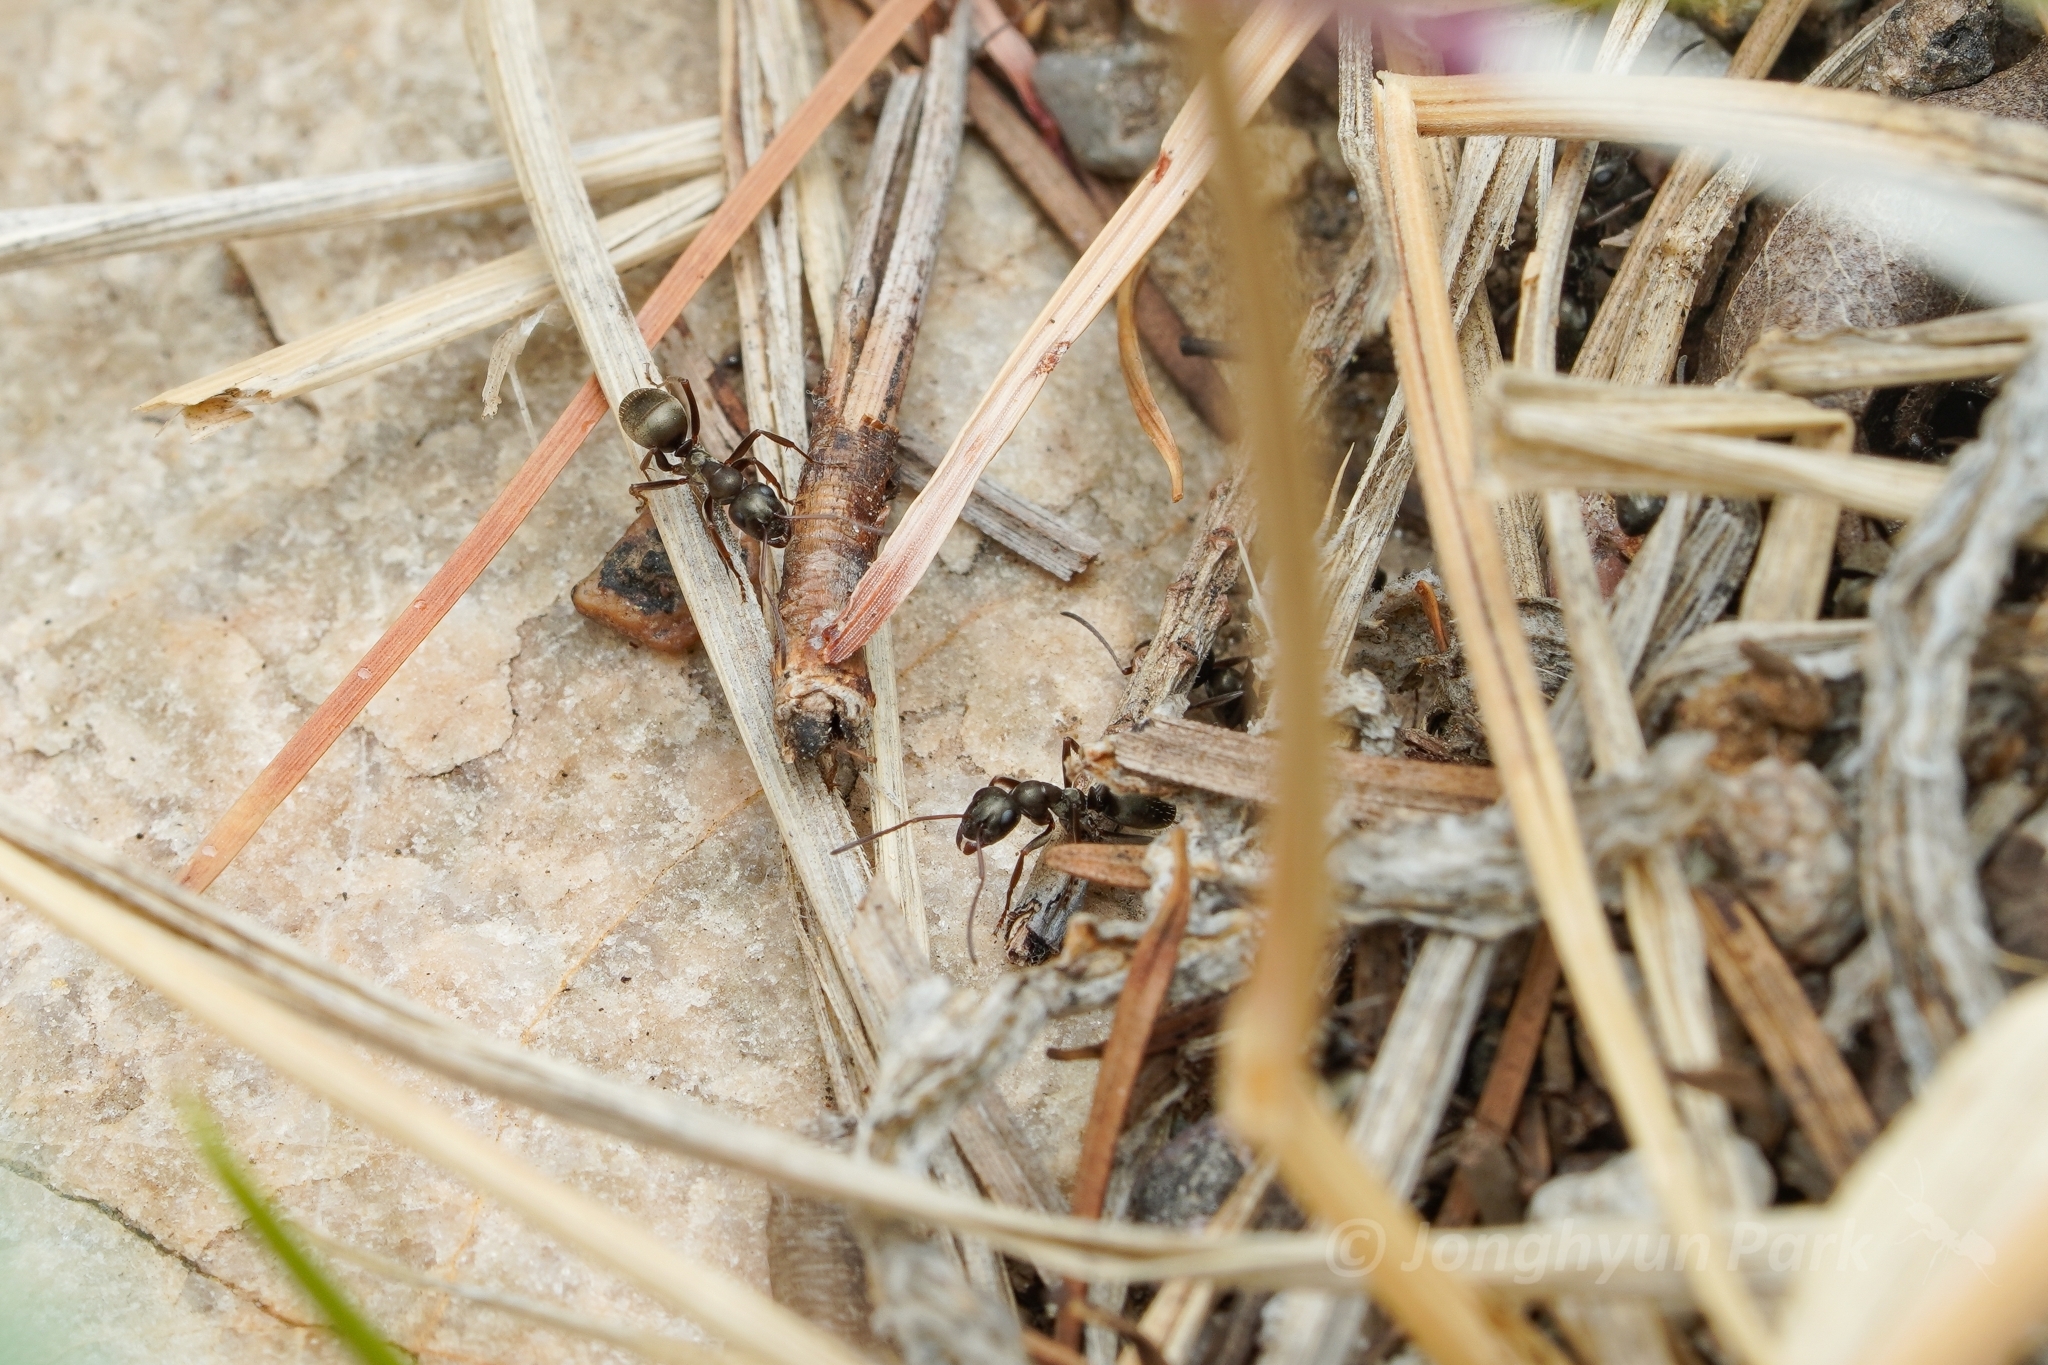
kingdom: Animalia
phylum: Arthropoda
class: Insecta
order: Hymenoptera
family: Formicidae
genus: Formica
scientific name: Formica occulta
